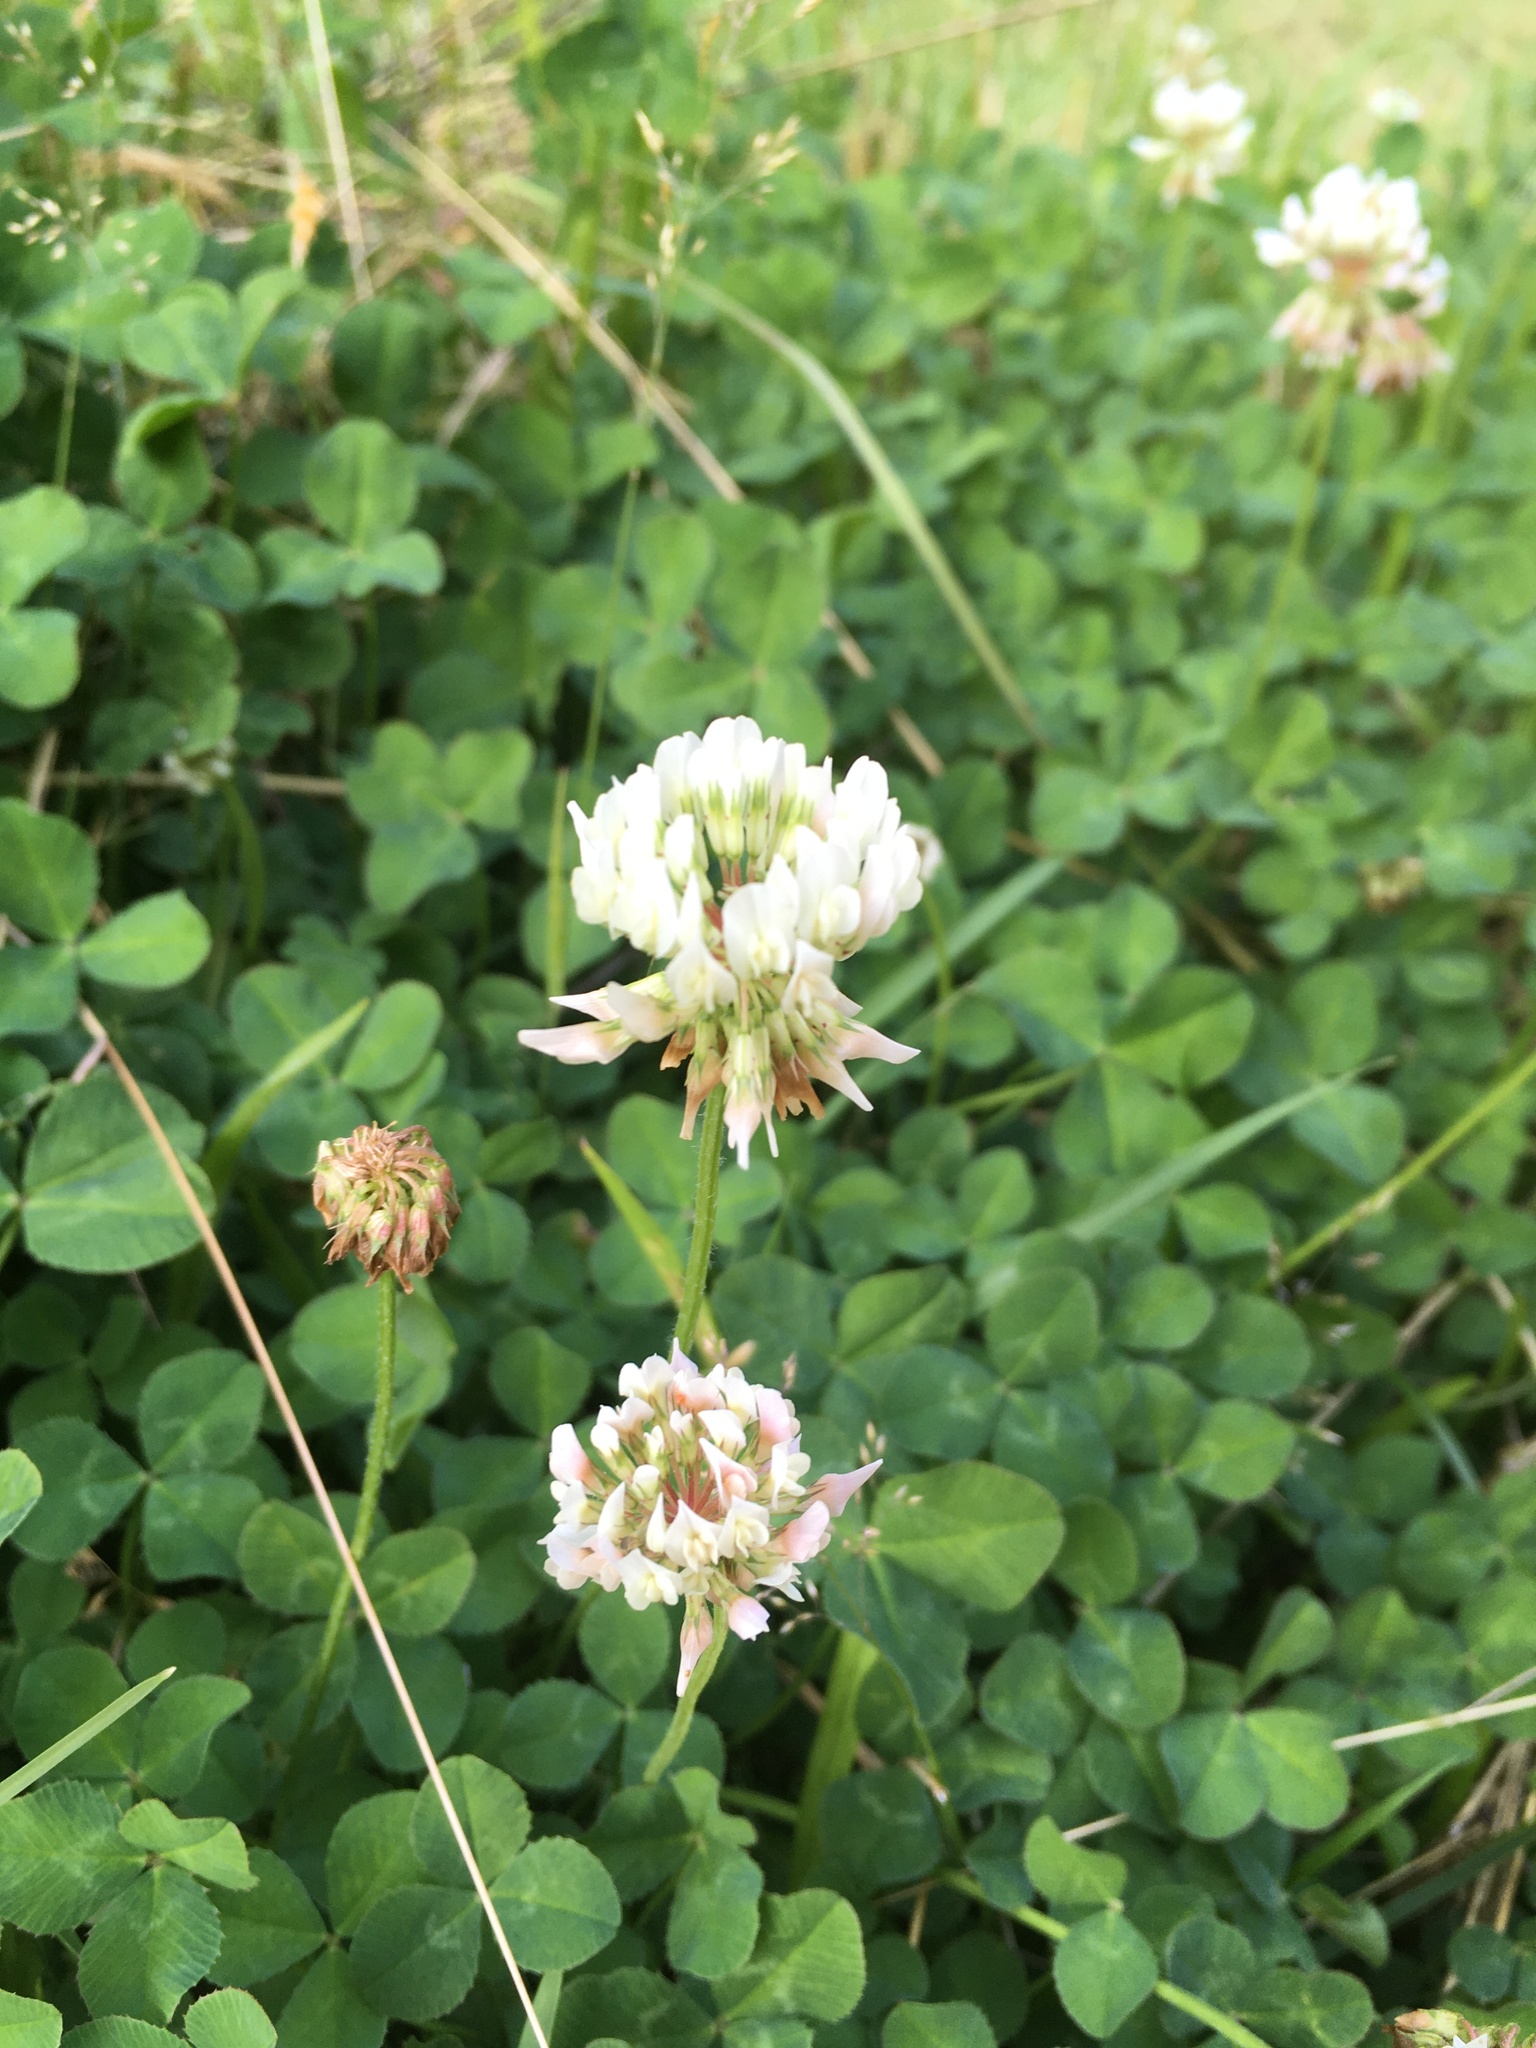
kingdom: Plantae
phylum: Tracheophyta
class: Magnoliopsida
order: Fabales
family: Fabaceae
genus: Trifolium
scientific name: Trifolium repens
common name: White clover
